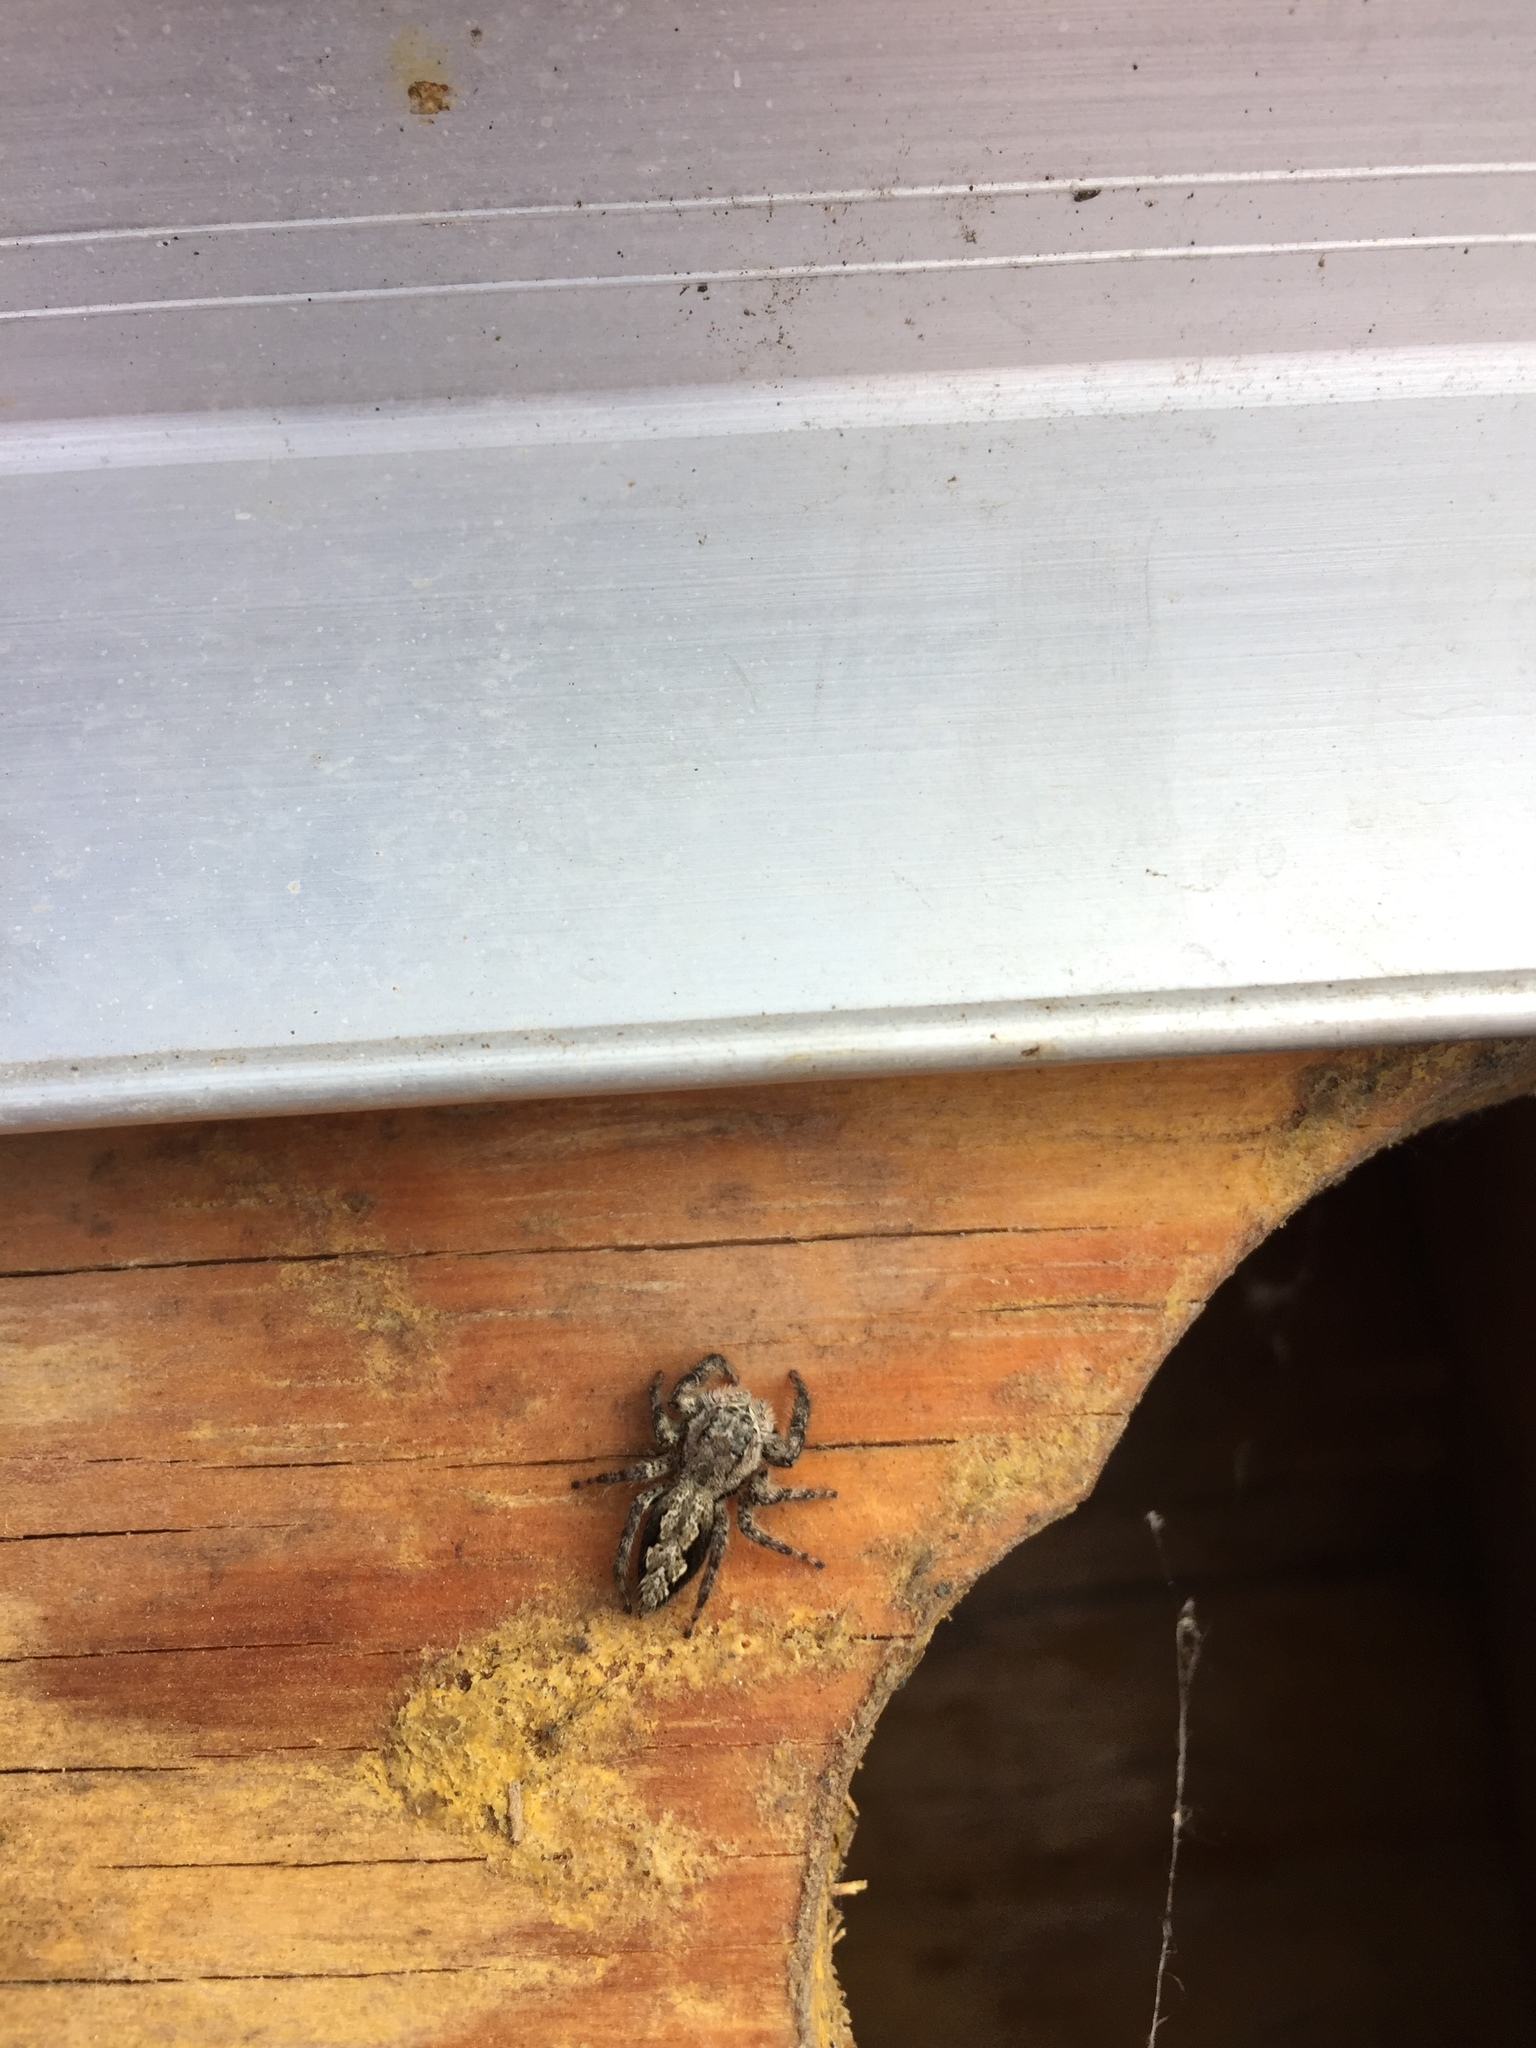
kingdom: Animalia
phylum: Arthropoda
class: Arachnida
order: Araneae
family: Salticidae
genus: Platycryptus
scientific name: Platycryptus undatus
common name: Tan jumping spider
